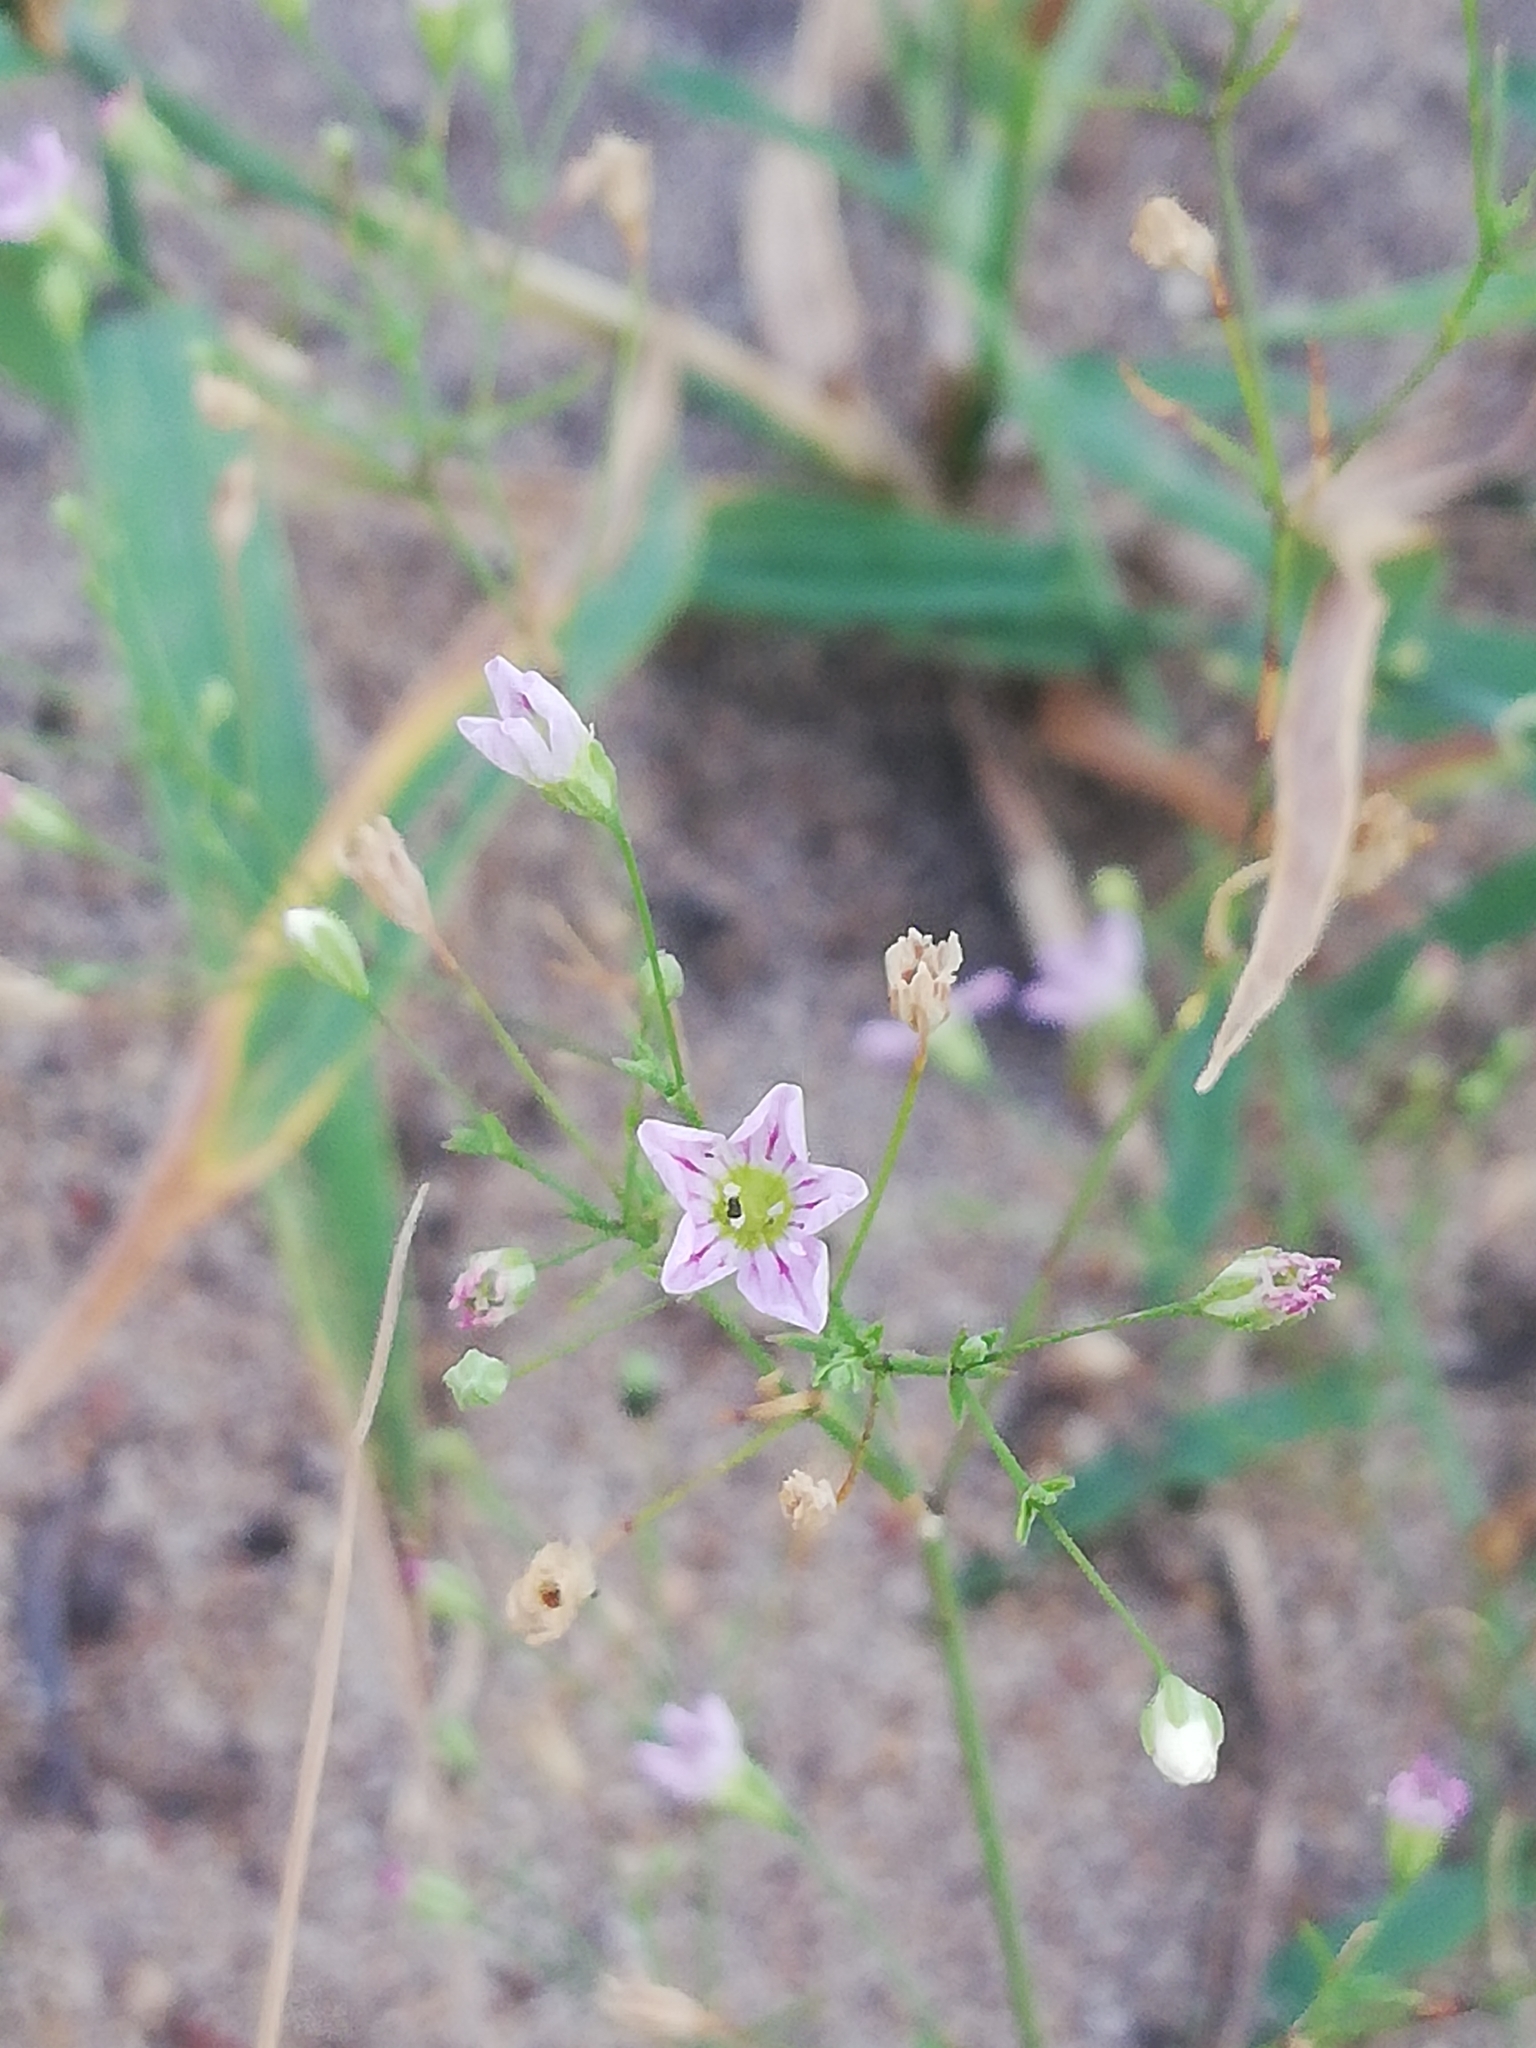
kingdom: Plantae
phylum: Tracheophyta
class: Magnoliopsida
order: Caryophyllales
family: Caryophyllaceae
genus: Psammophiliella
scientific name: Psammophiliella muralis
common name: Cushion baby's-breath
